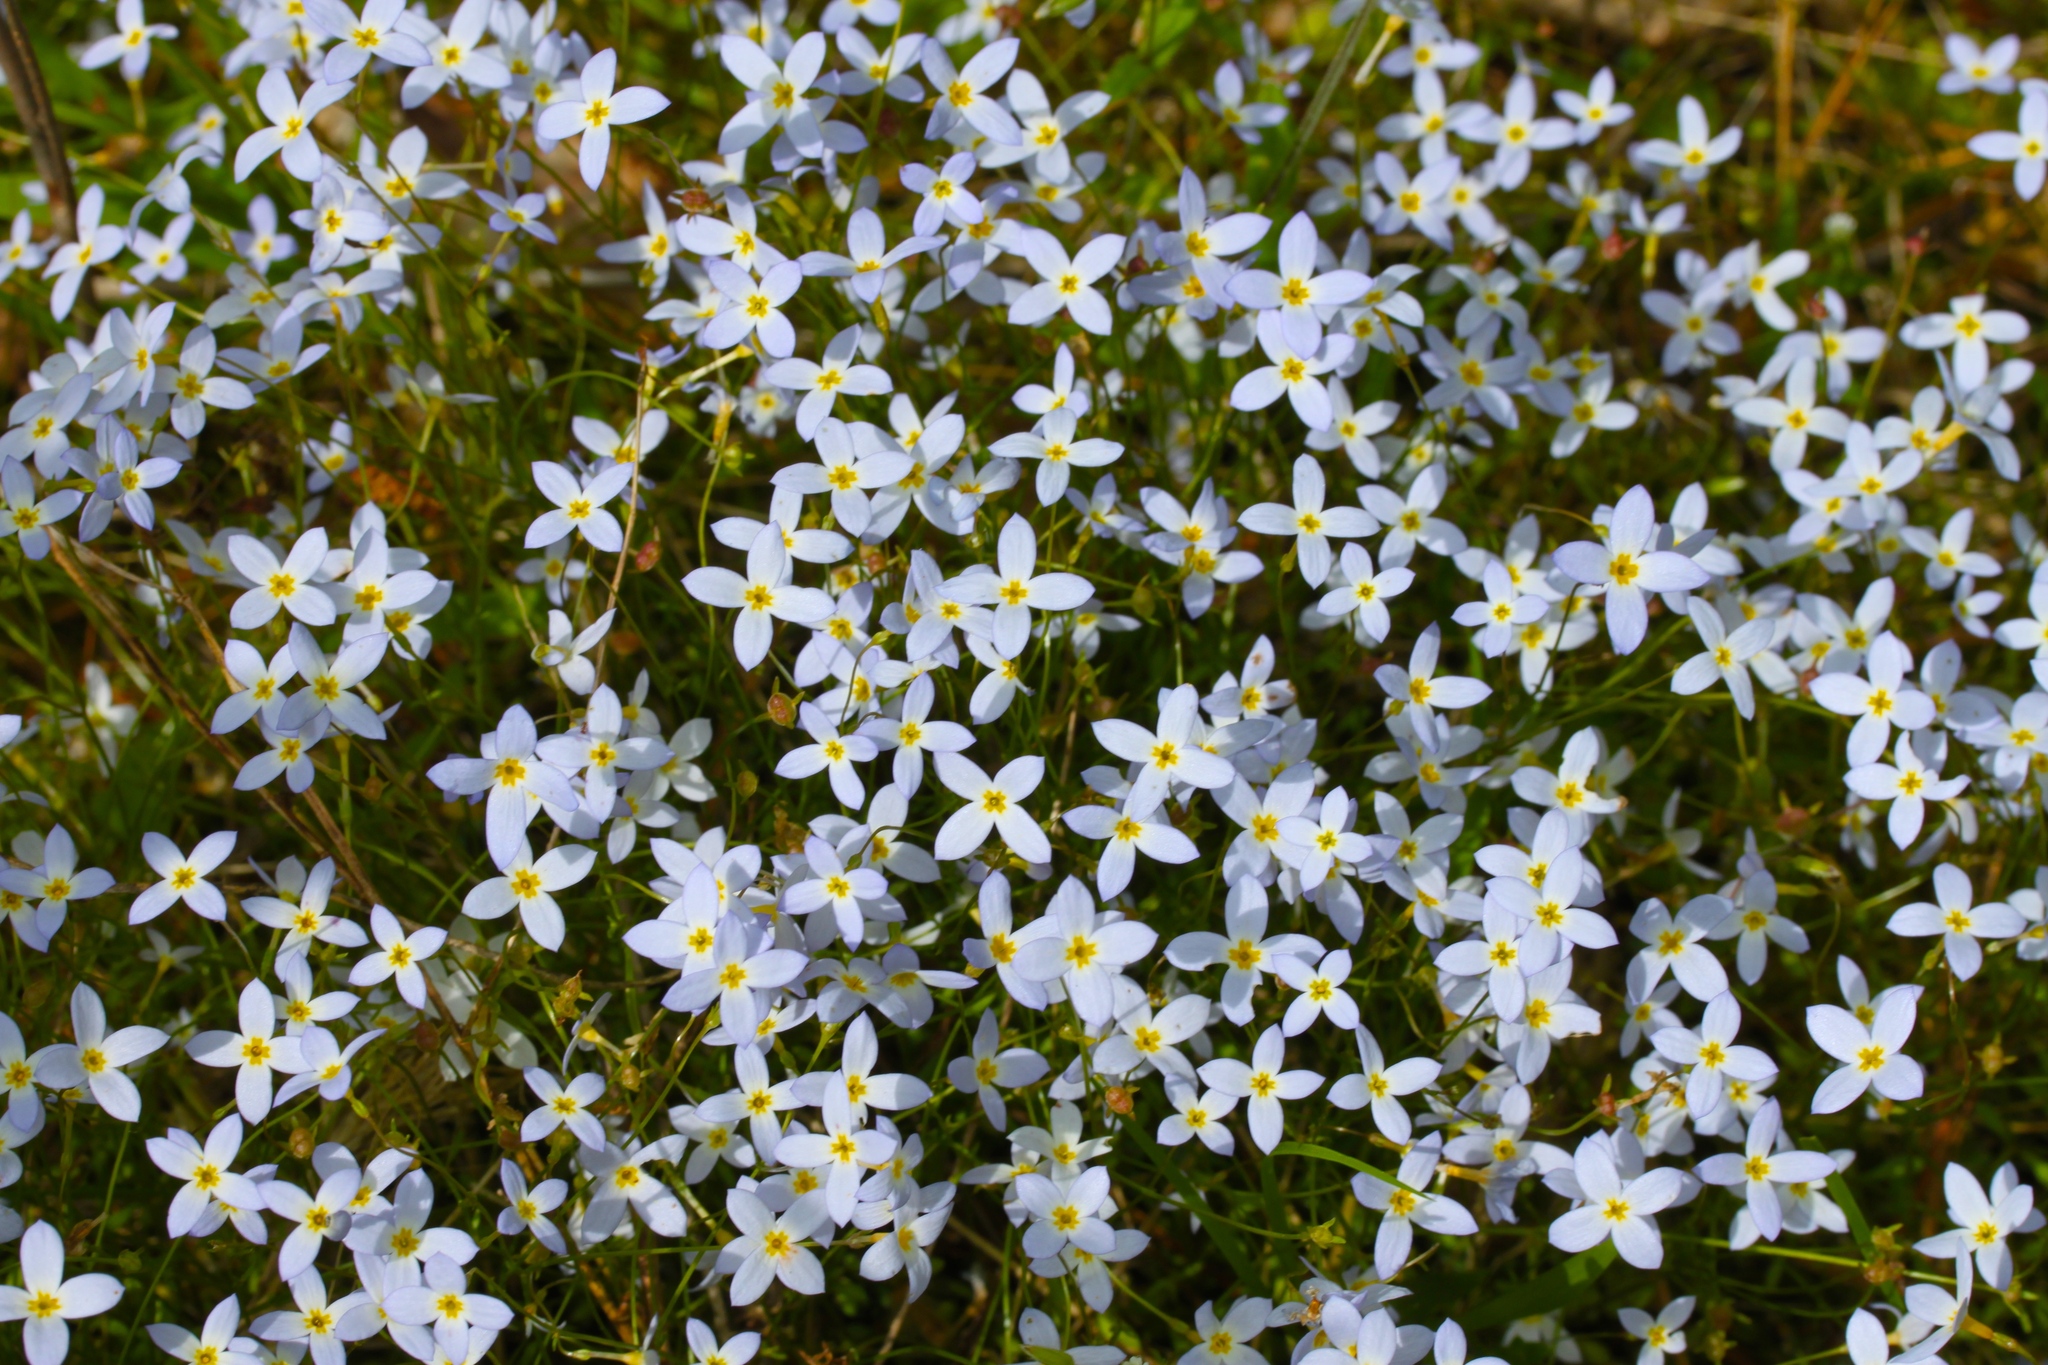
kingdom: Plantae
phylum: Tracheophyta
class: Magnoliopsida
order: Gentianales
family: Rubiaceae
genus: Houstonia
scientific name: Houstonia caerulea
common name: Bluets
